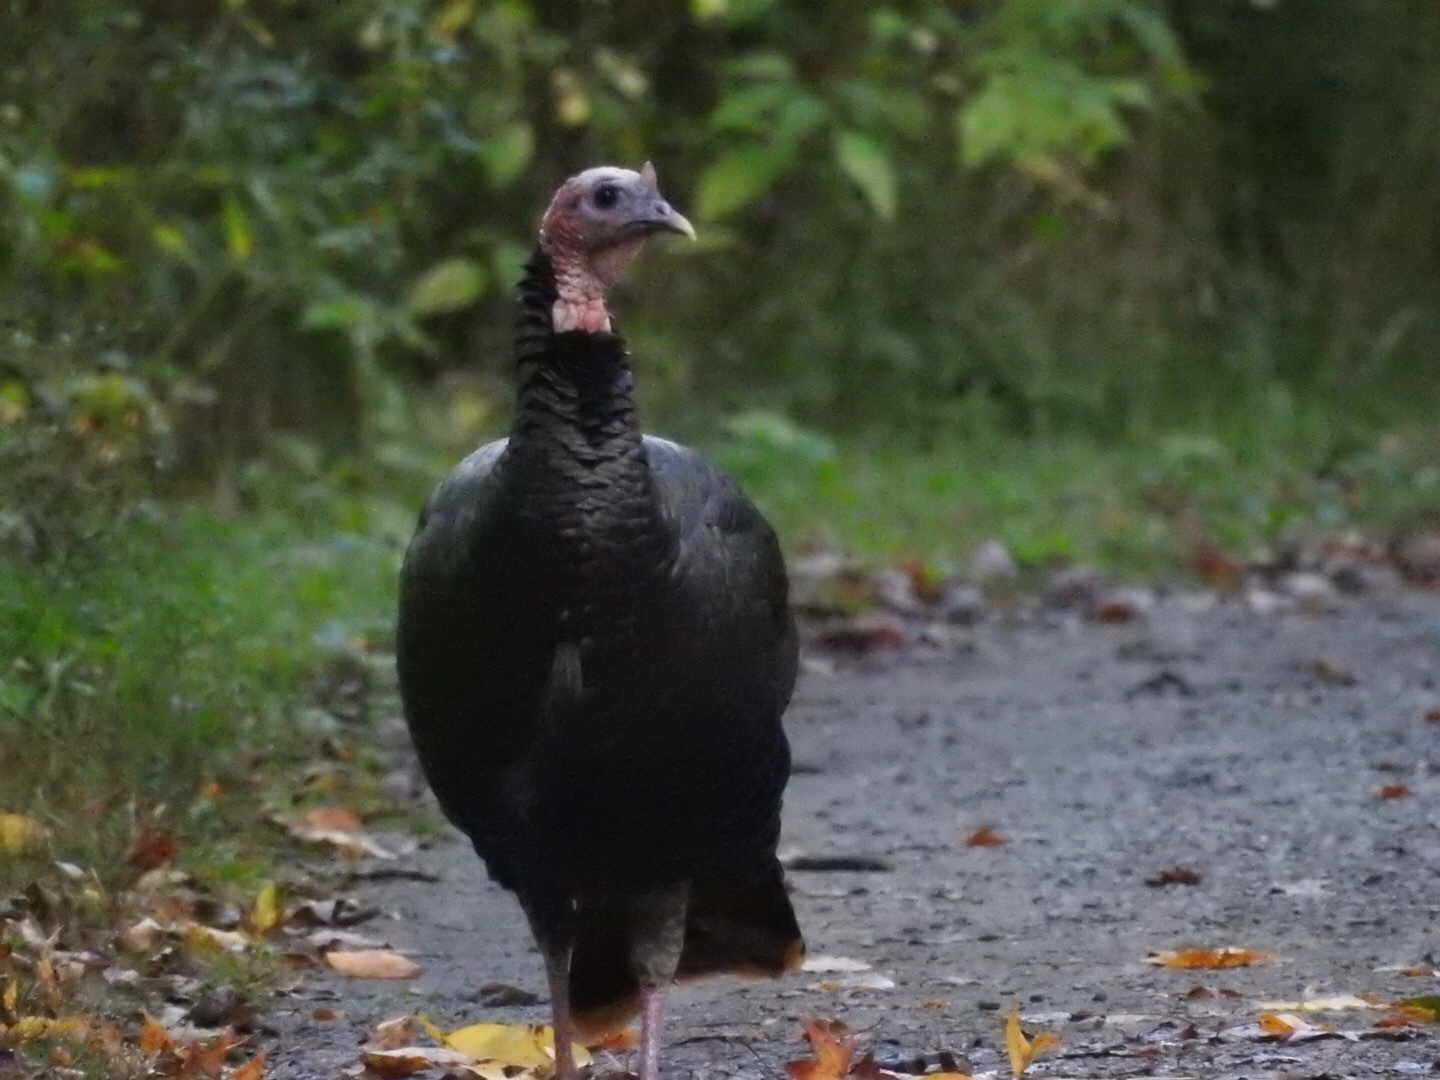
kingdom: Animalia
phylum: Chordata
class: Aves
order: Galliformes
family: Phasianidae
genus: Meleagris
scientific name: Meleagris gallopavo
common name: Wild turkey
